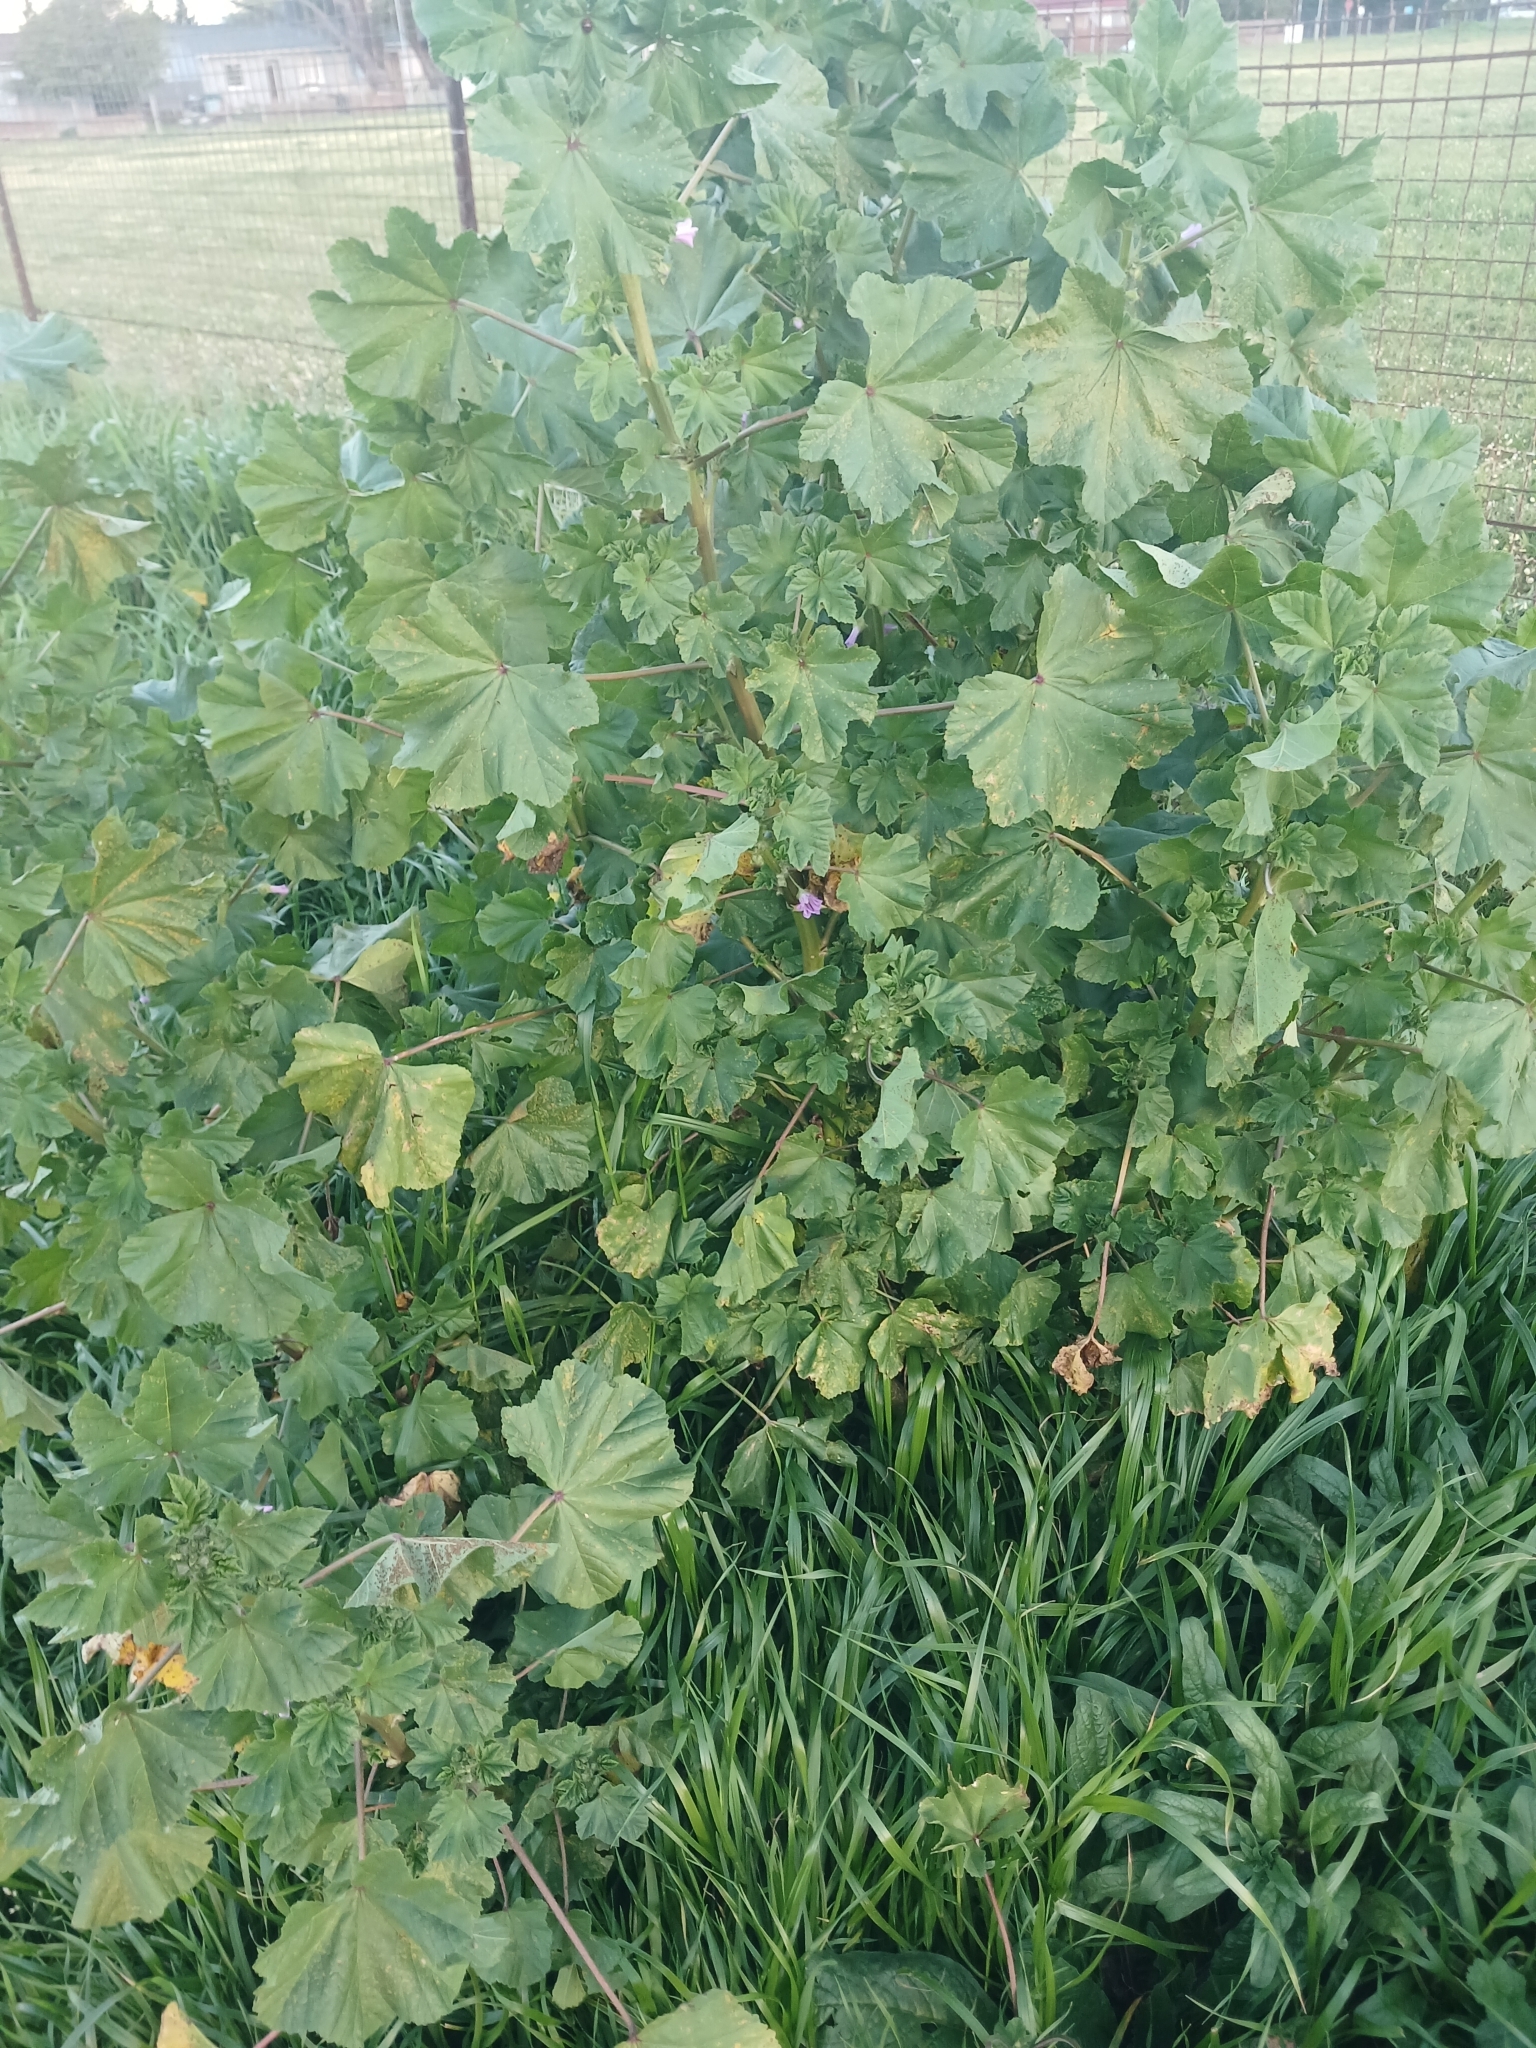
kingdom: Plantae
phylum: Tracheophyta
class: Magnoliopsida
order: Malvales
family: Malvaceae
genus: Malva
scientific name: Malva arborea
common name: Tree mallow
